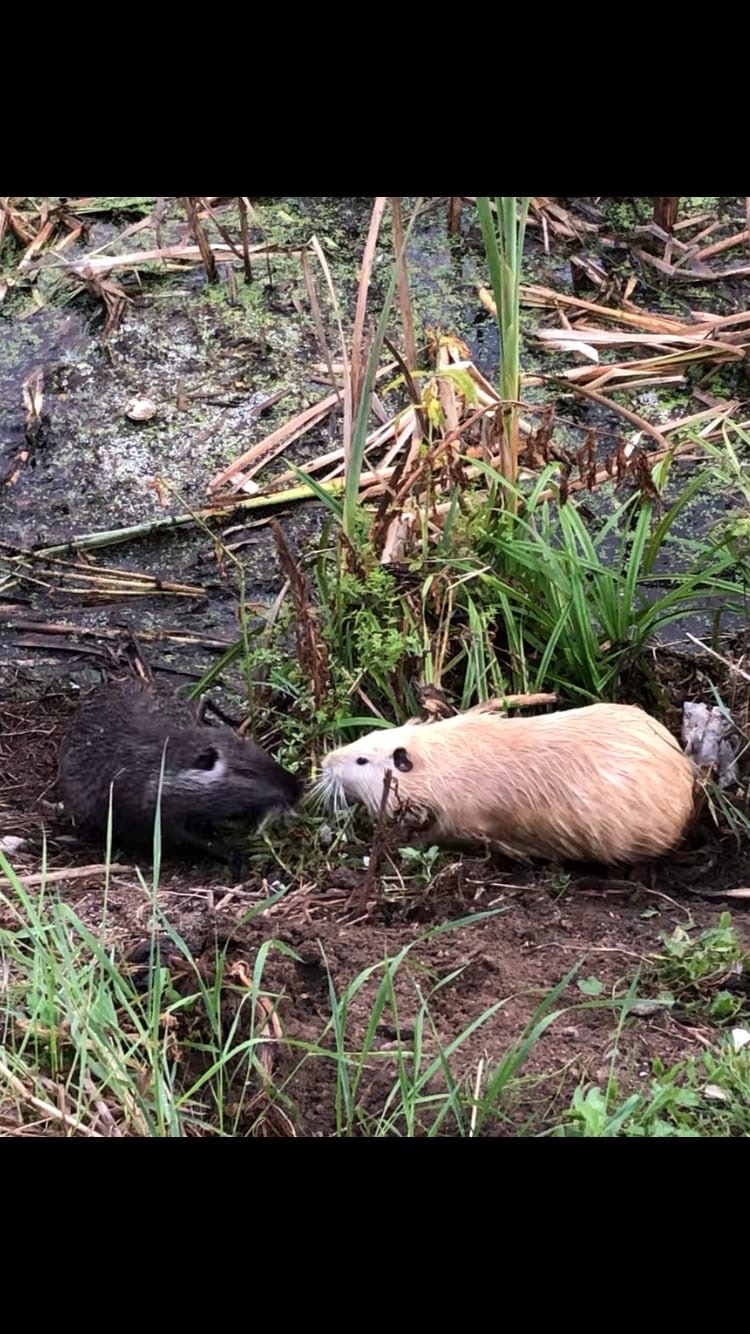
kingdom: Animalia
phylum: Chordata
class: Mammalia
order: Rodentia
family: Myocastoridae
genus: Myocastor
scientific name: Myocastor coypus
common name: Coypu
